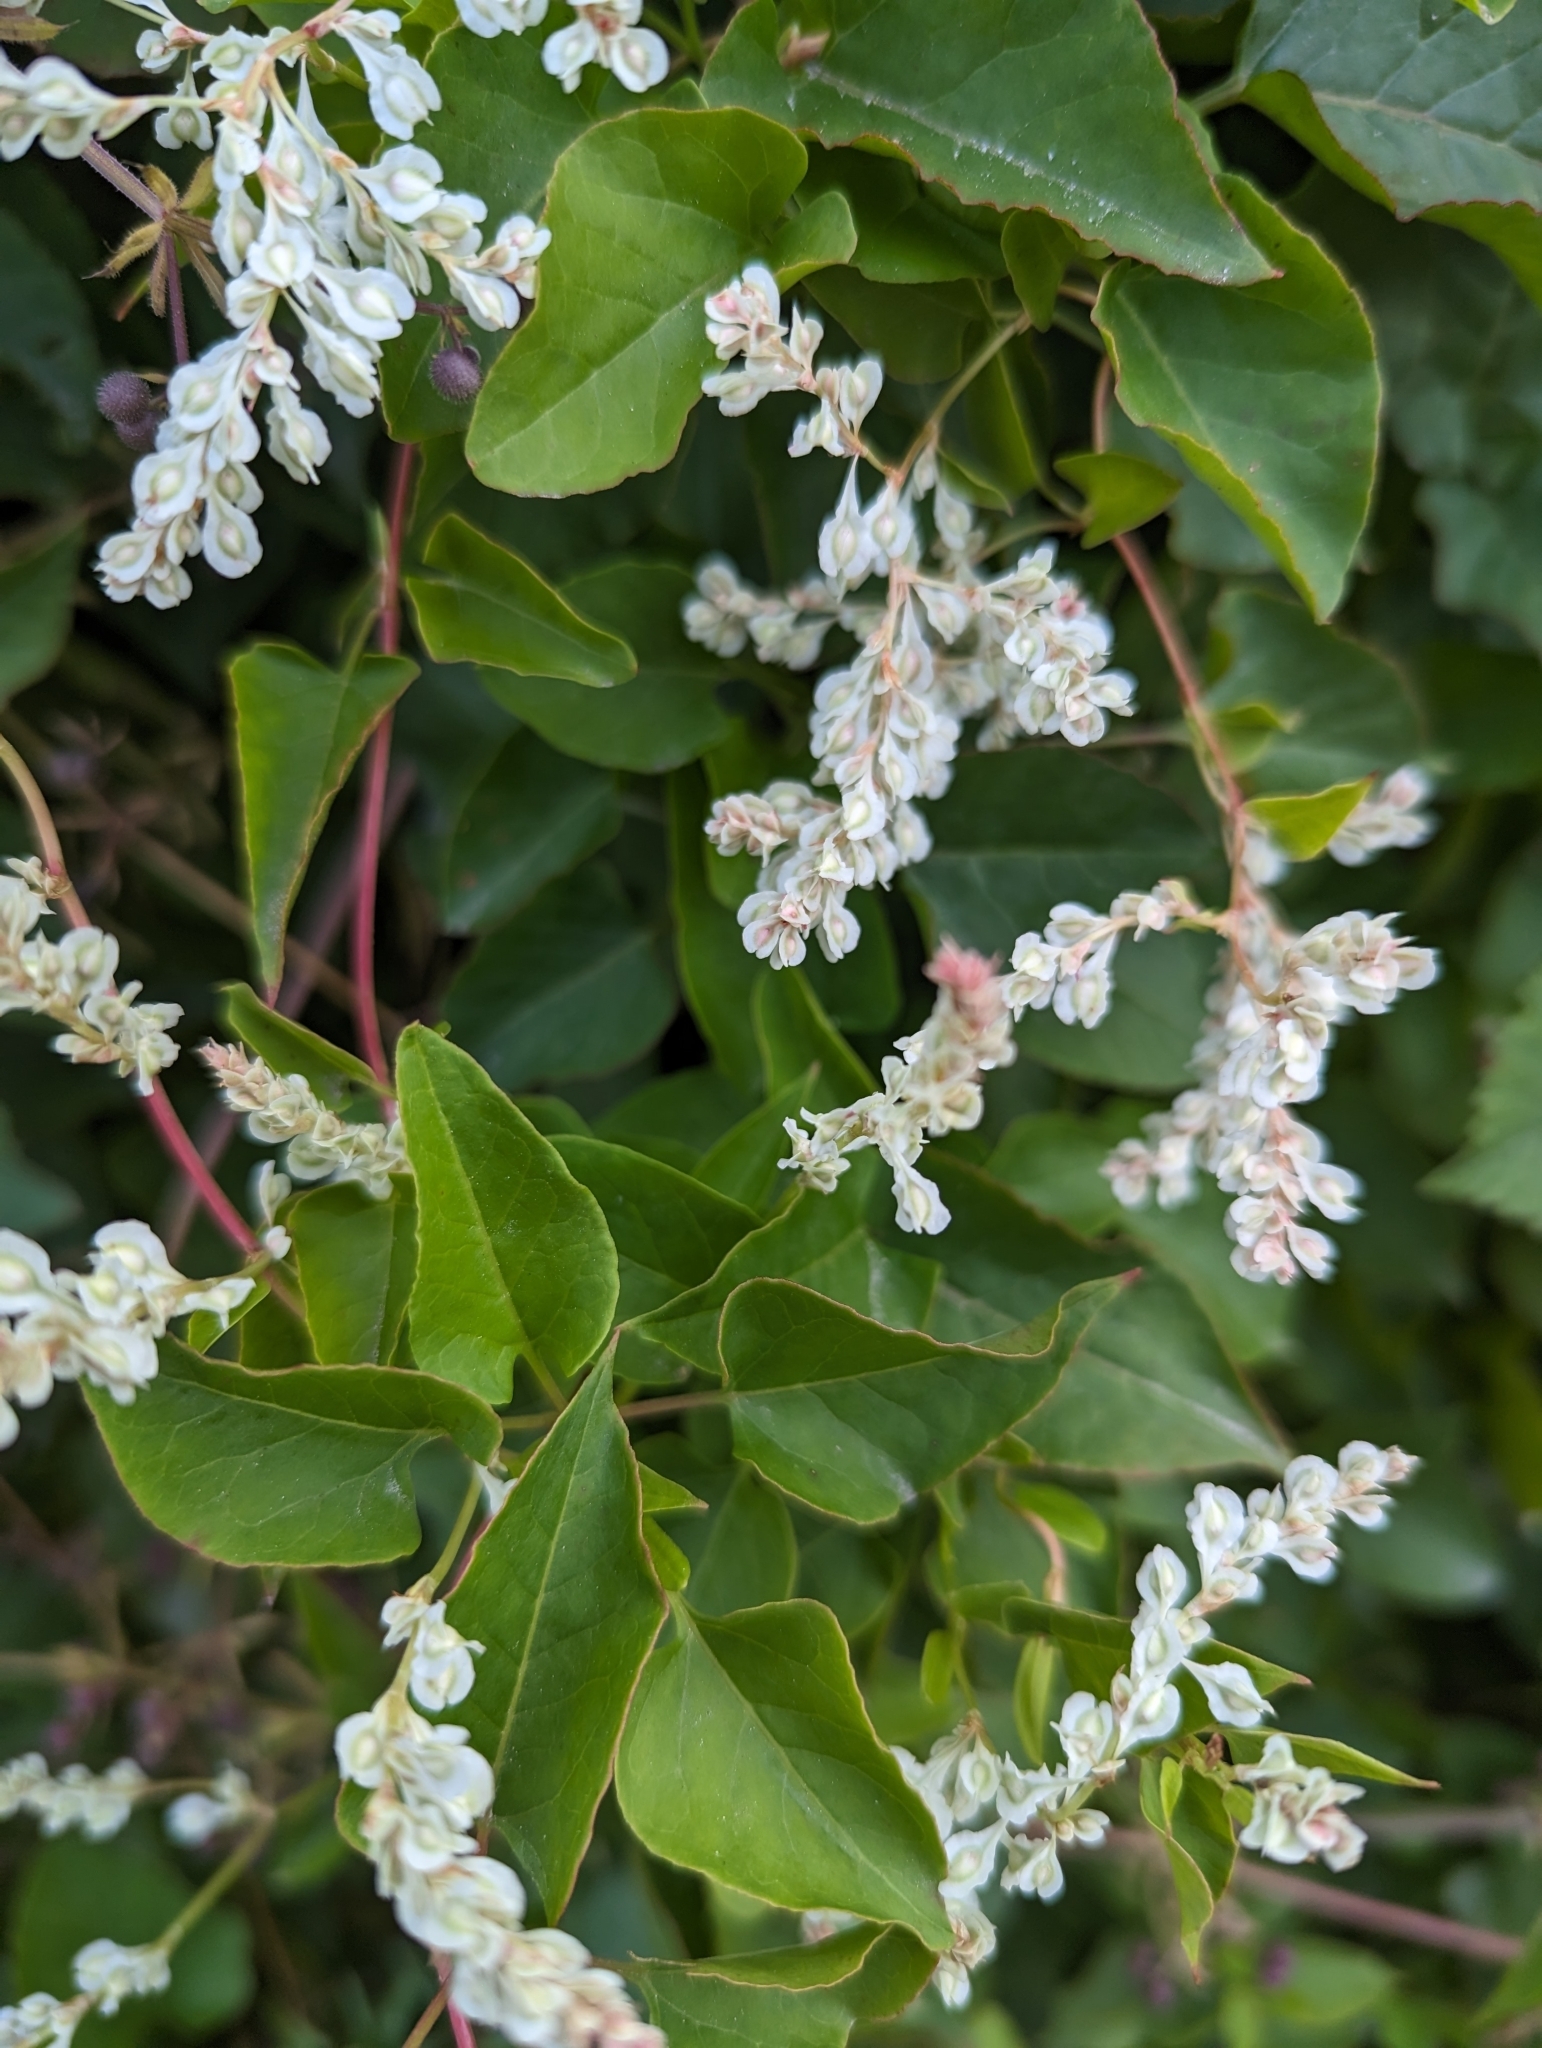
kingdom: Plantae
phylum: Tracheophyta
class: Magnoliopsida
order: Caryophyllales
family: Polygonaceae
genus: Fallopia
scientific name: Fallopia baldschuanica
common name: Russian-vine
